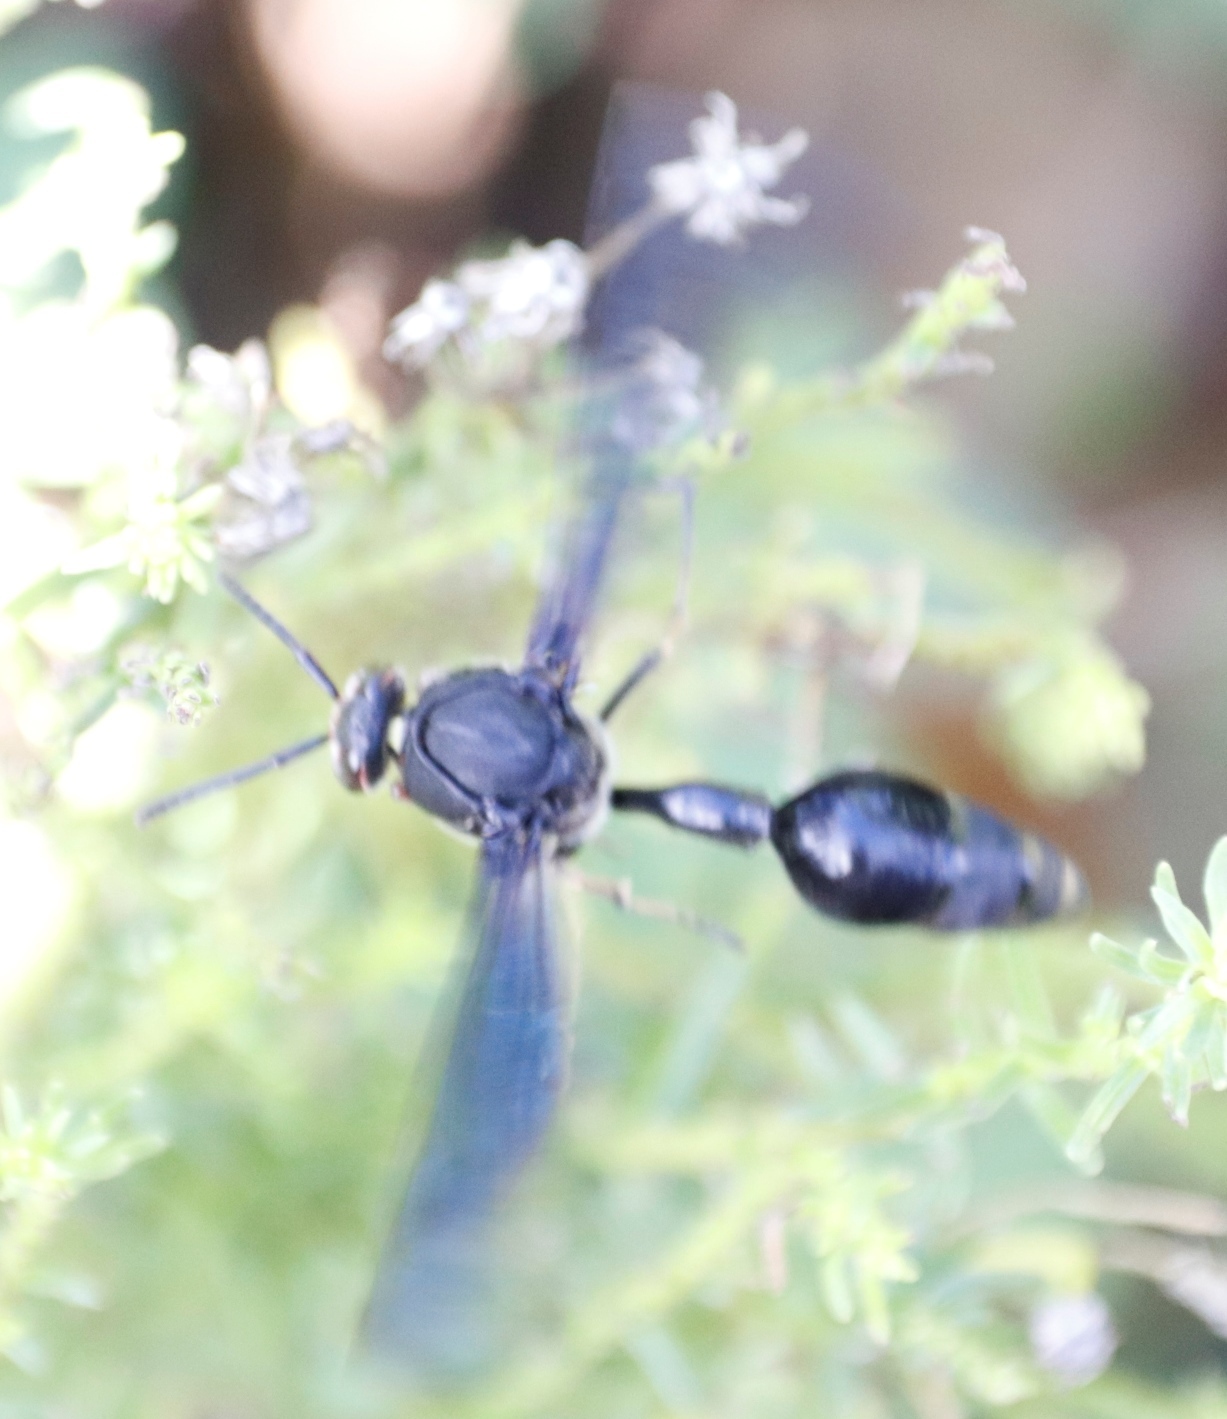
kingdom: Animalia
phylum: Arthropoda
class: Insecta
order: Hymenoptera
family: Eumenidae
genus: Delta
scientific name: Delta bonellii
